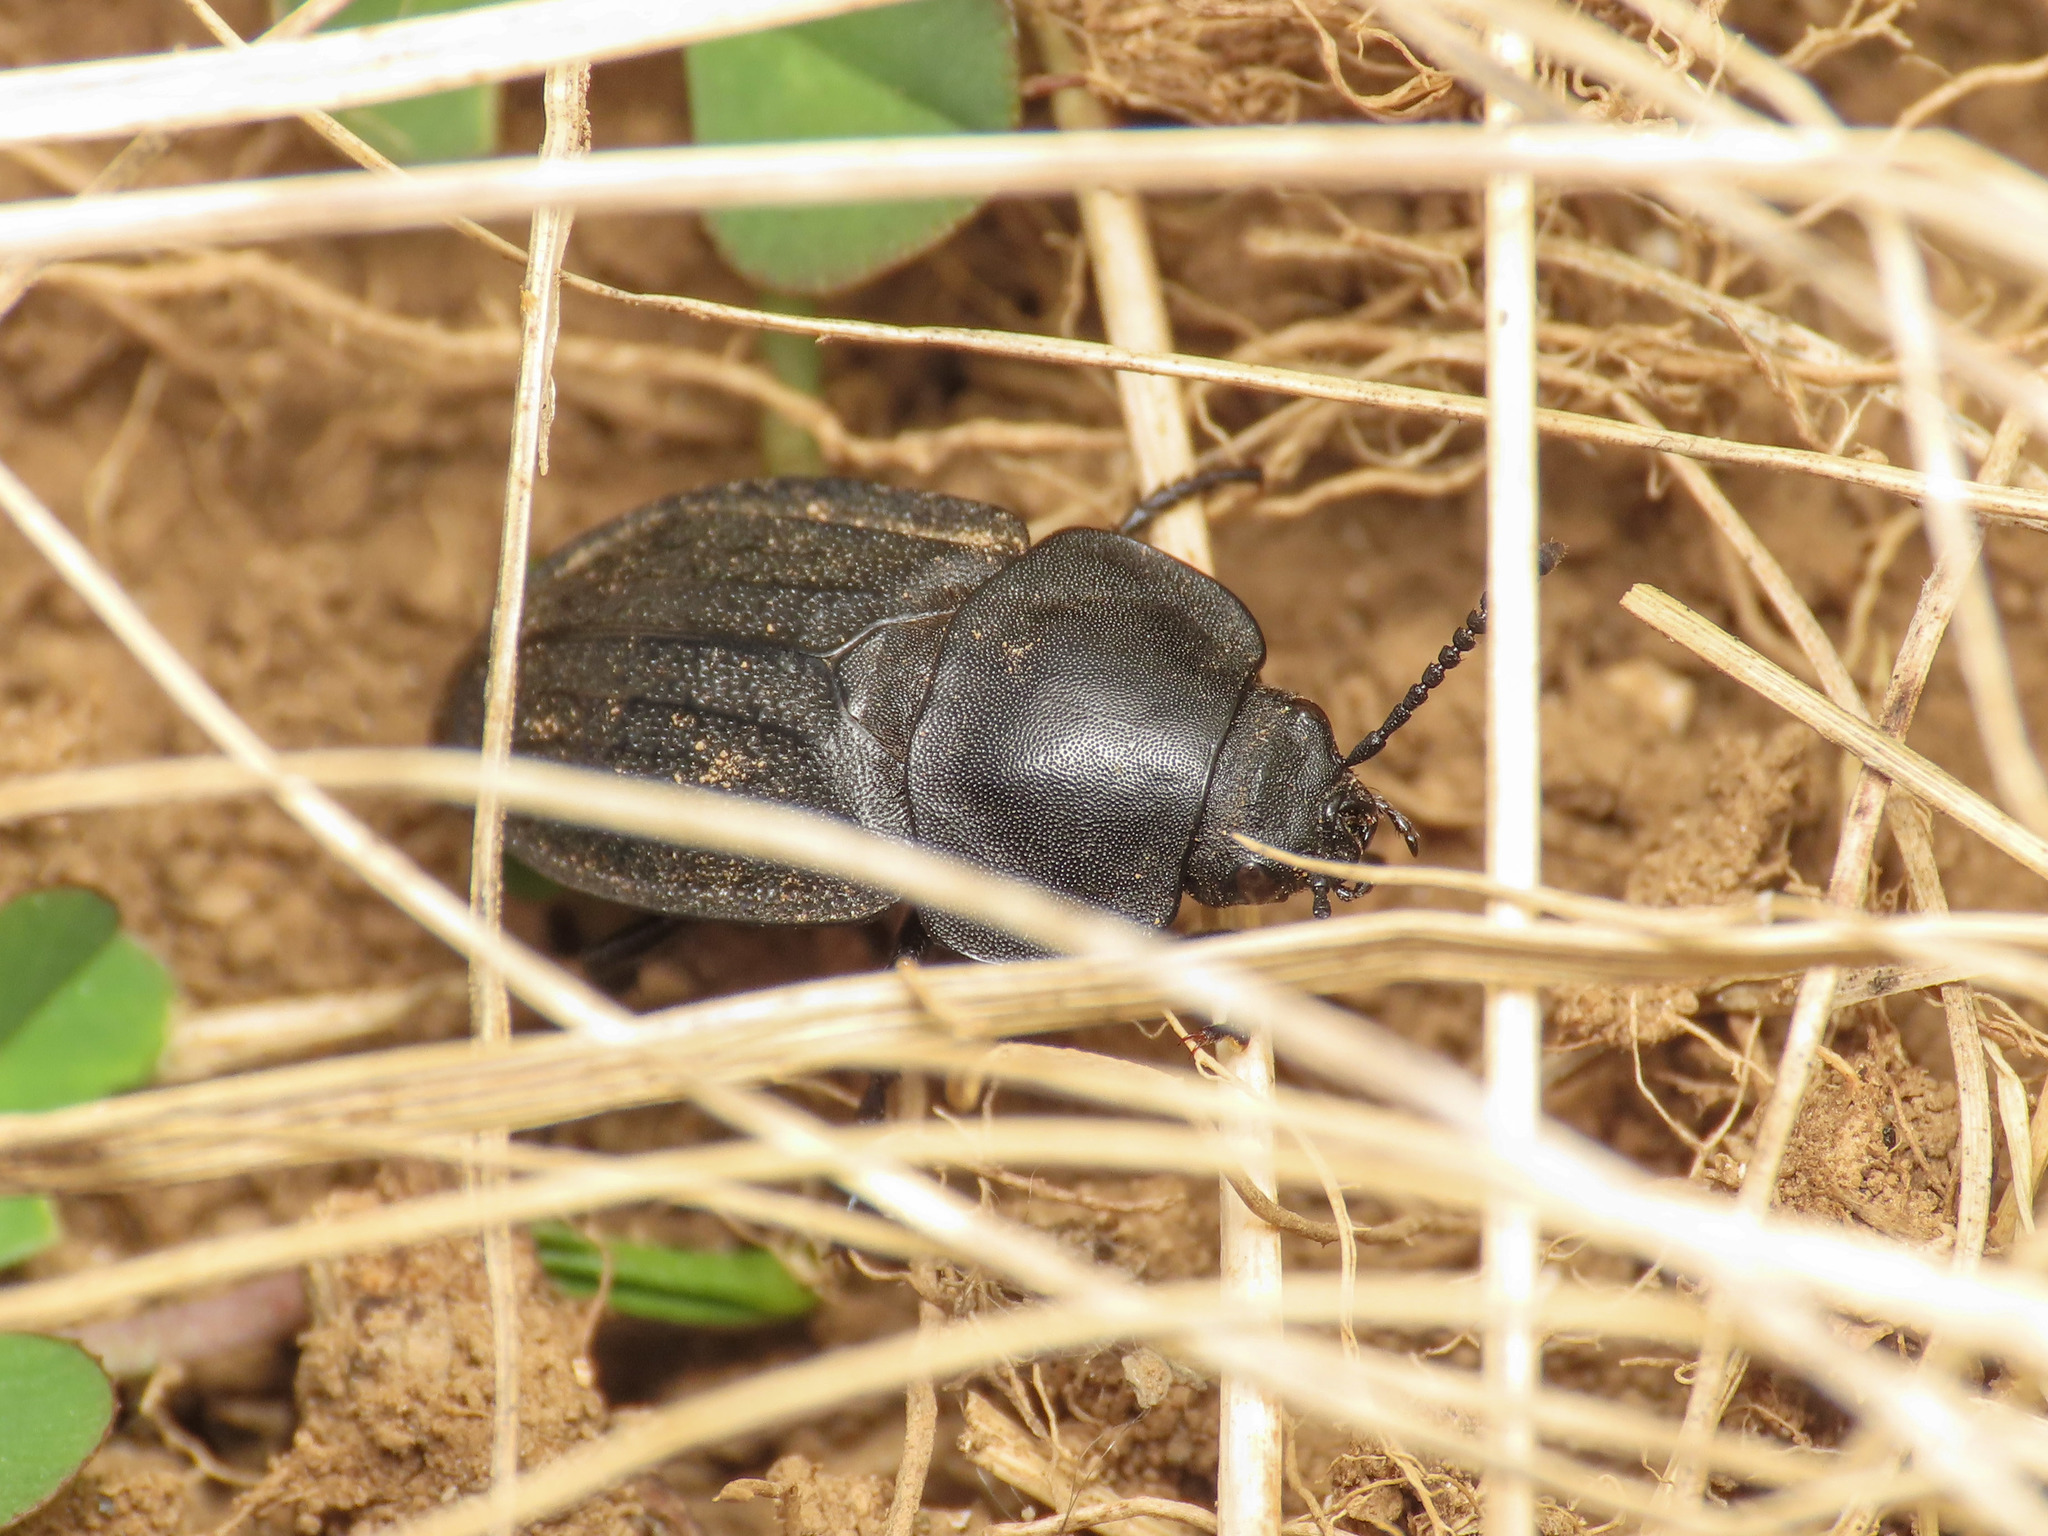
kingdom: Animalia
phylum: Arthropoda
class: Insecta
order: Coleoptera
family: Staphylinidae
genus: Aclypea
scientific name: Aclypea undata
